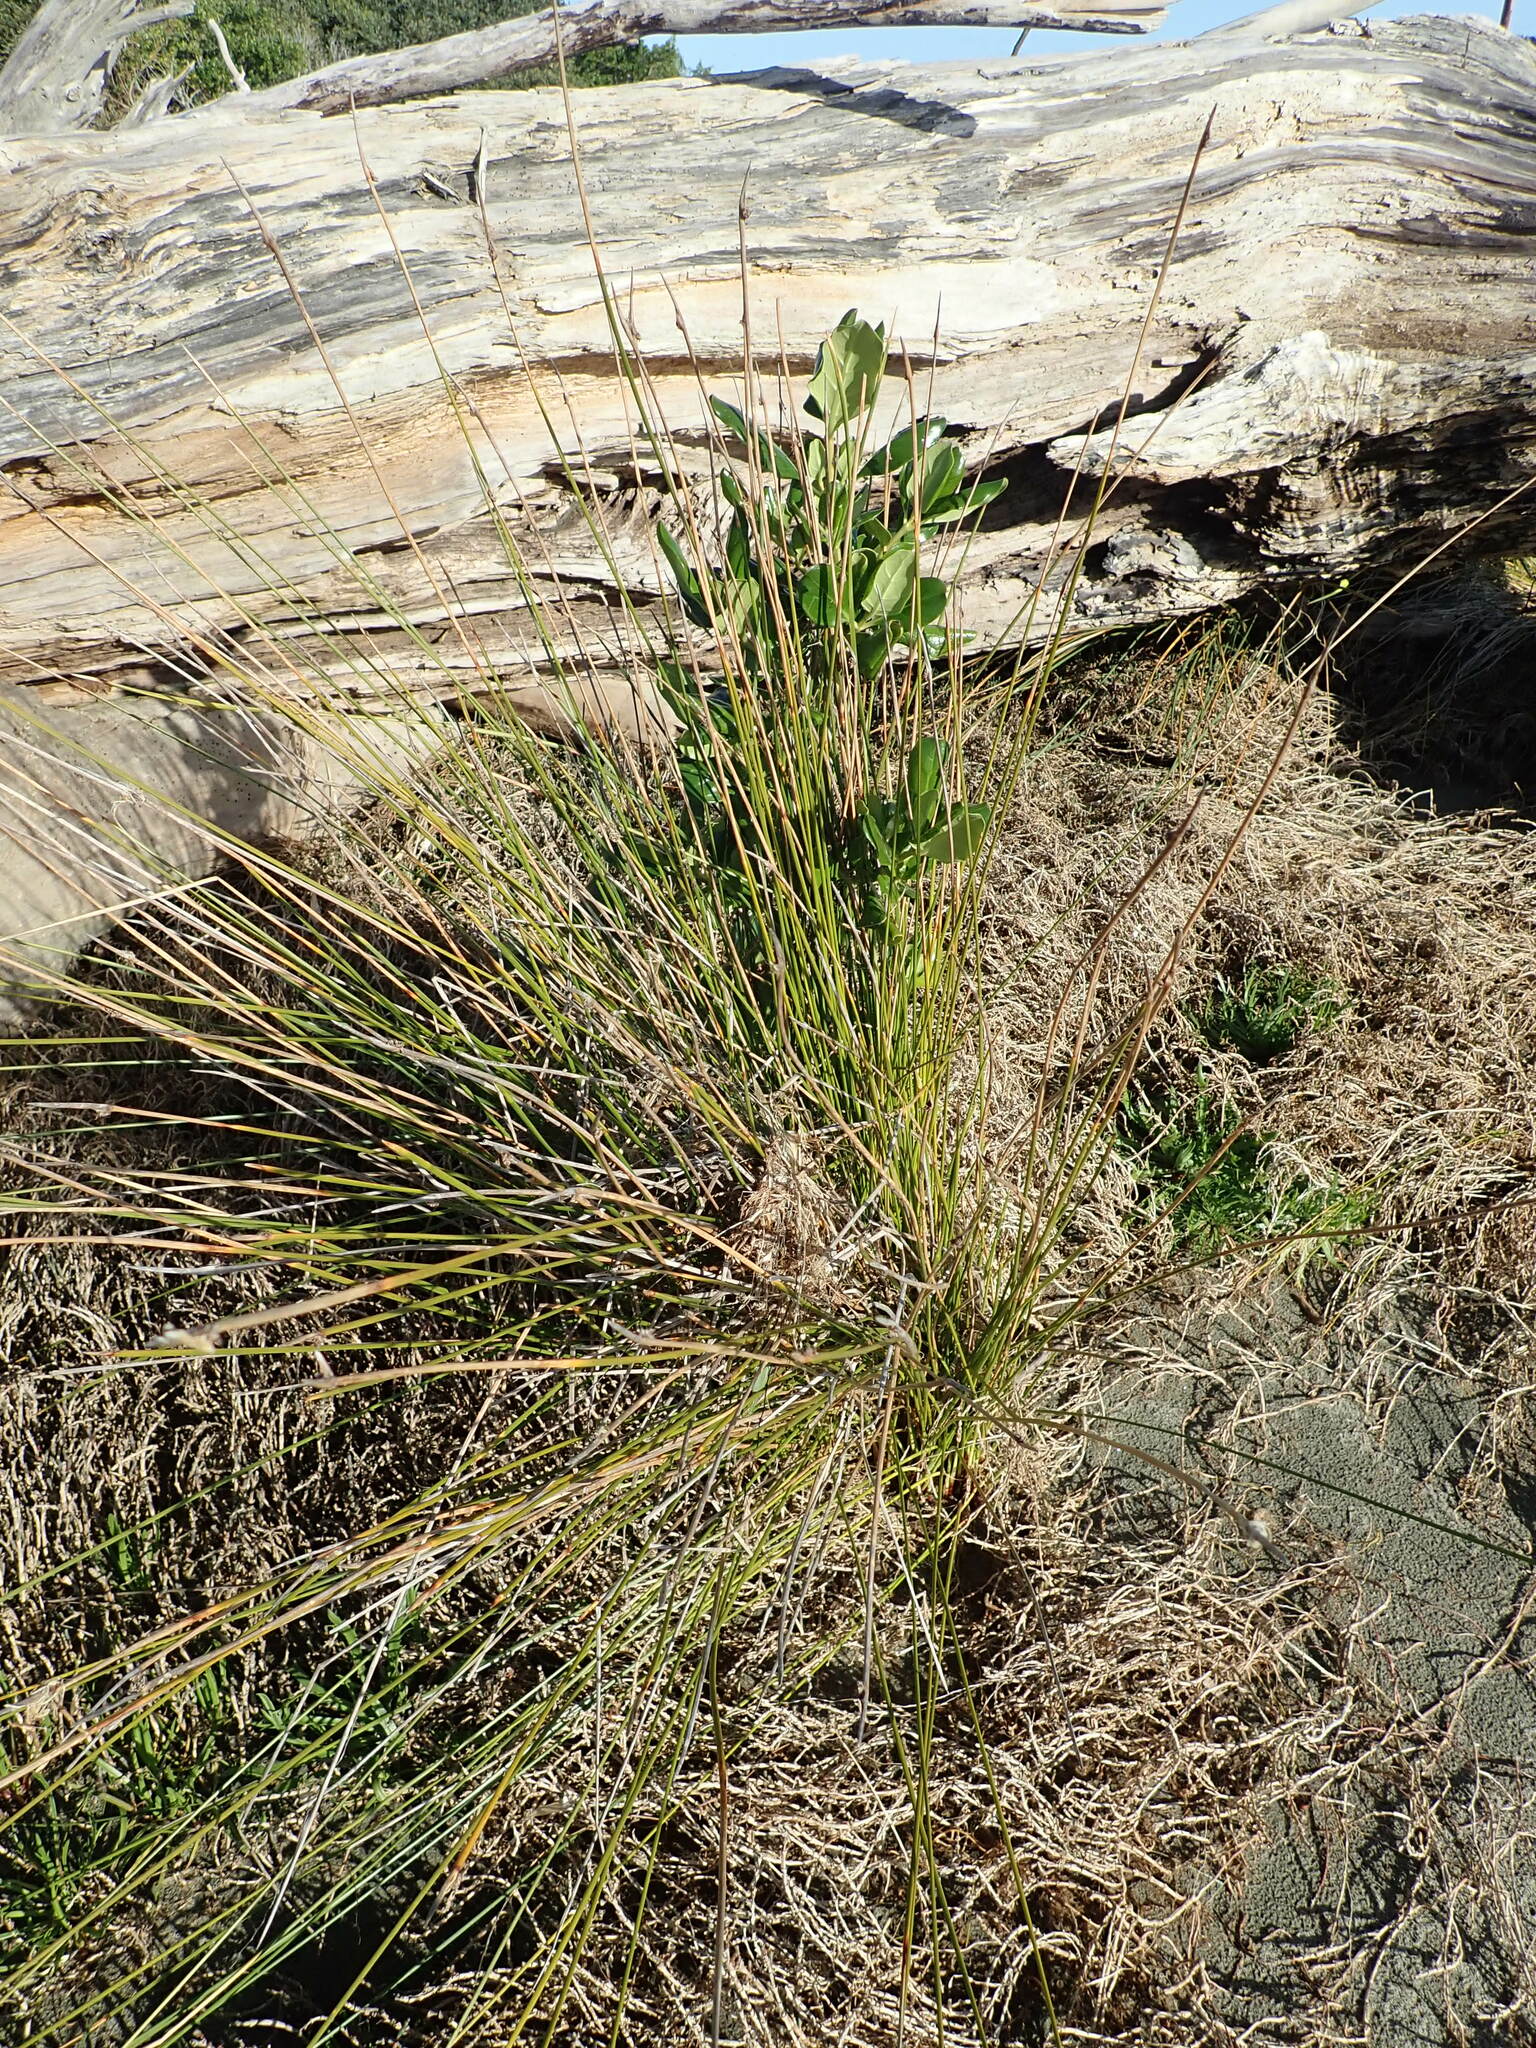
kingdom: Plantae
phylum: Tracheophyta
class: Liliopsida
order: Poales
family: Cyperaceae
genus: Ficinia
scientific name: Ficinia nodosa
